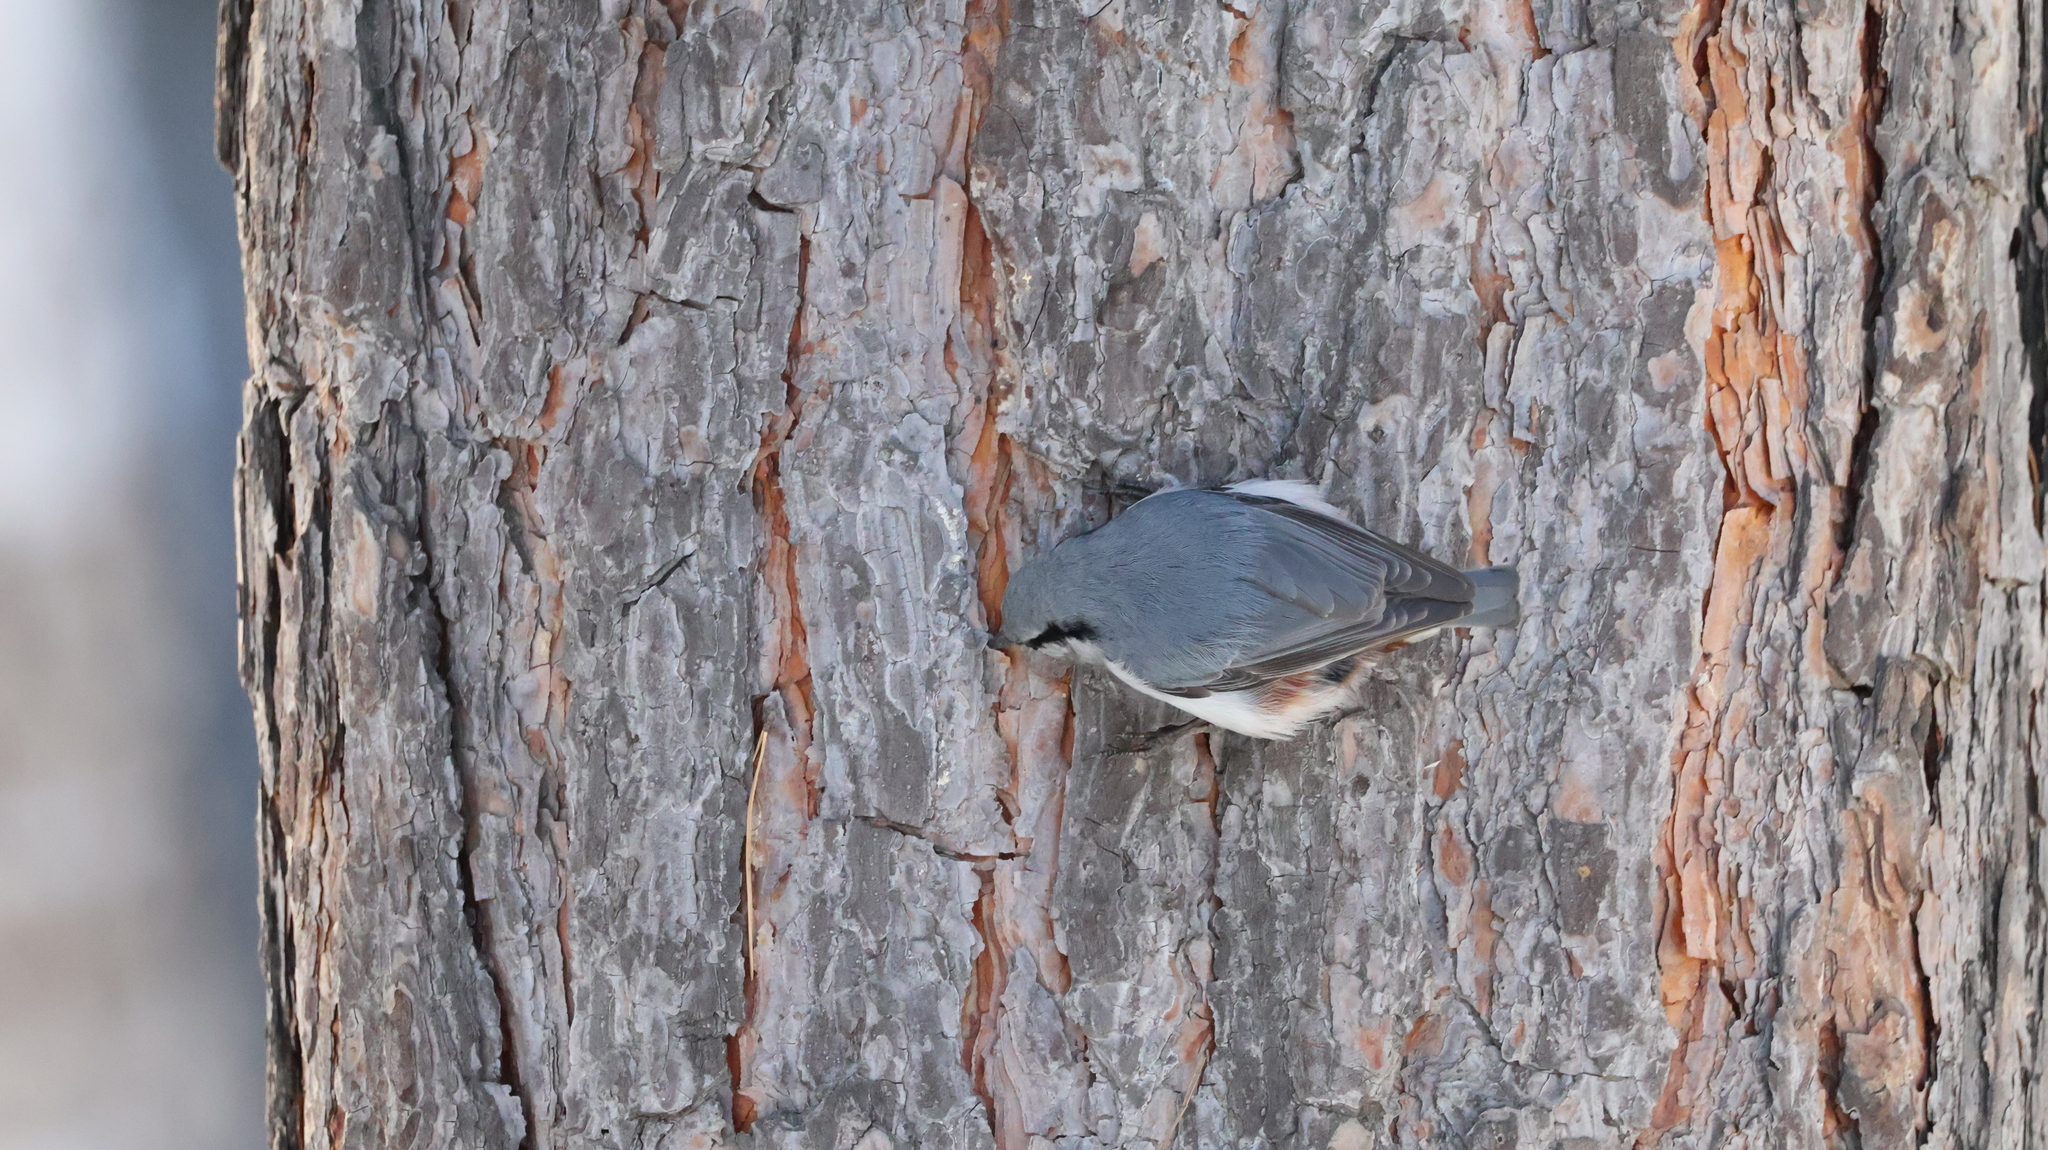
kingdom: Animalia
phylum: Chordata
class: Aves
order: Passeriformes
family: Sittidae
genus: Sitta
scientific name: Sitta europaea
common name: Eurasian nuthatch
